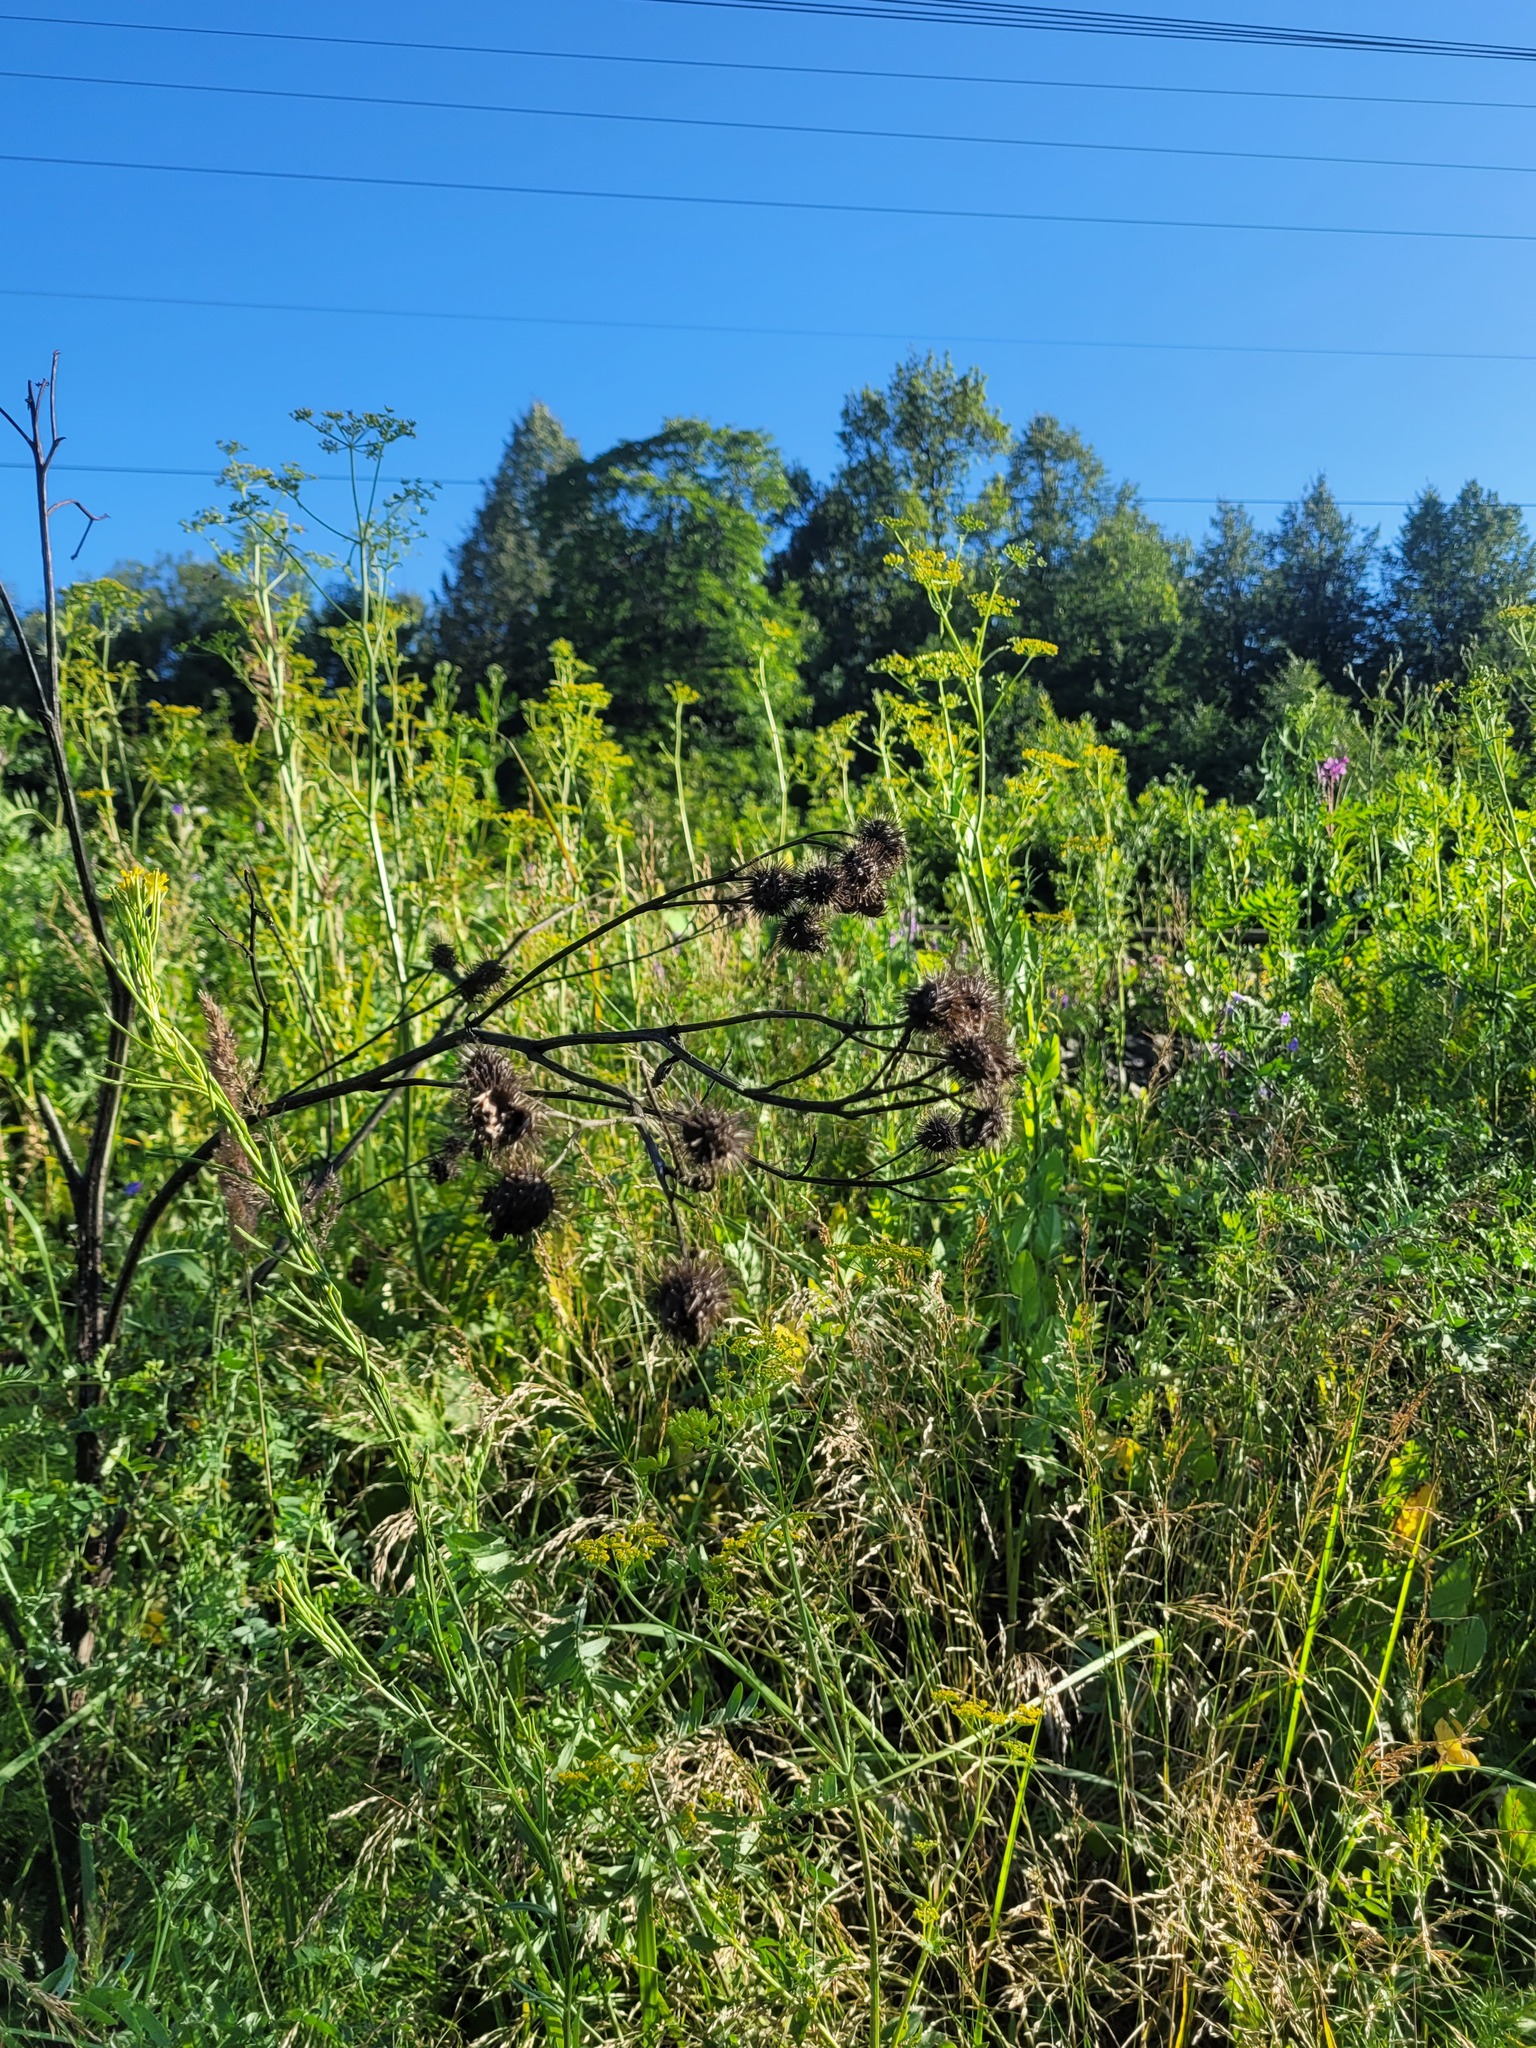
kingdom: Plantae
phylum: Tracheophyta
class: Magnoliopsida
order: Asterales
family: Asteraceae
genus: Arctium
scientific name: Arctium tomentosum
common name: Woolly burdock
